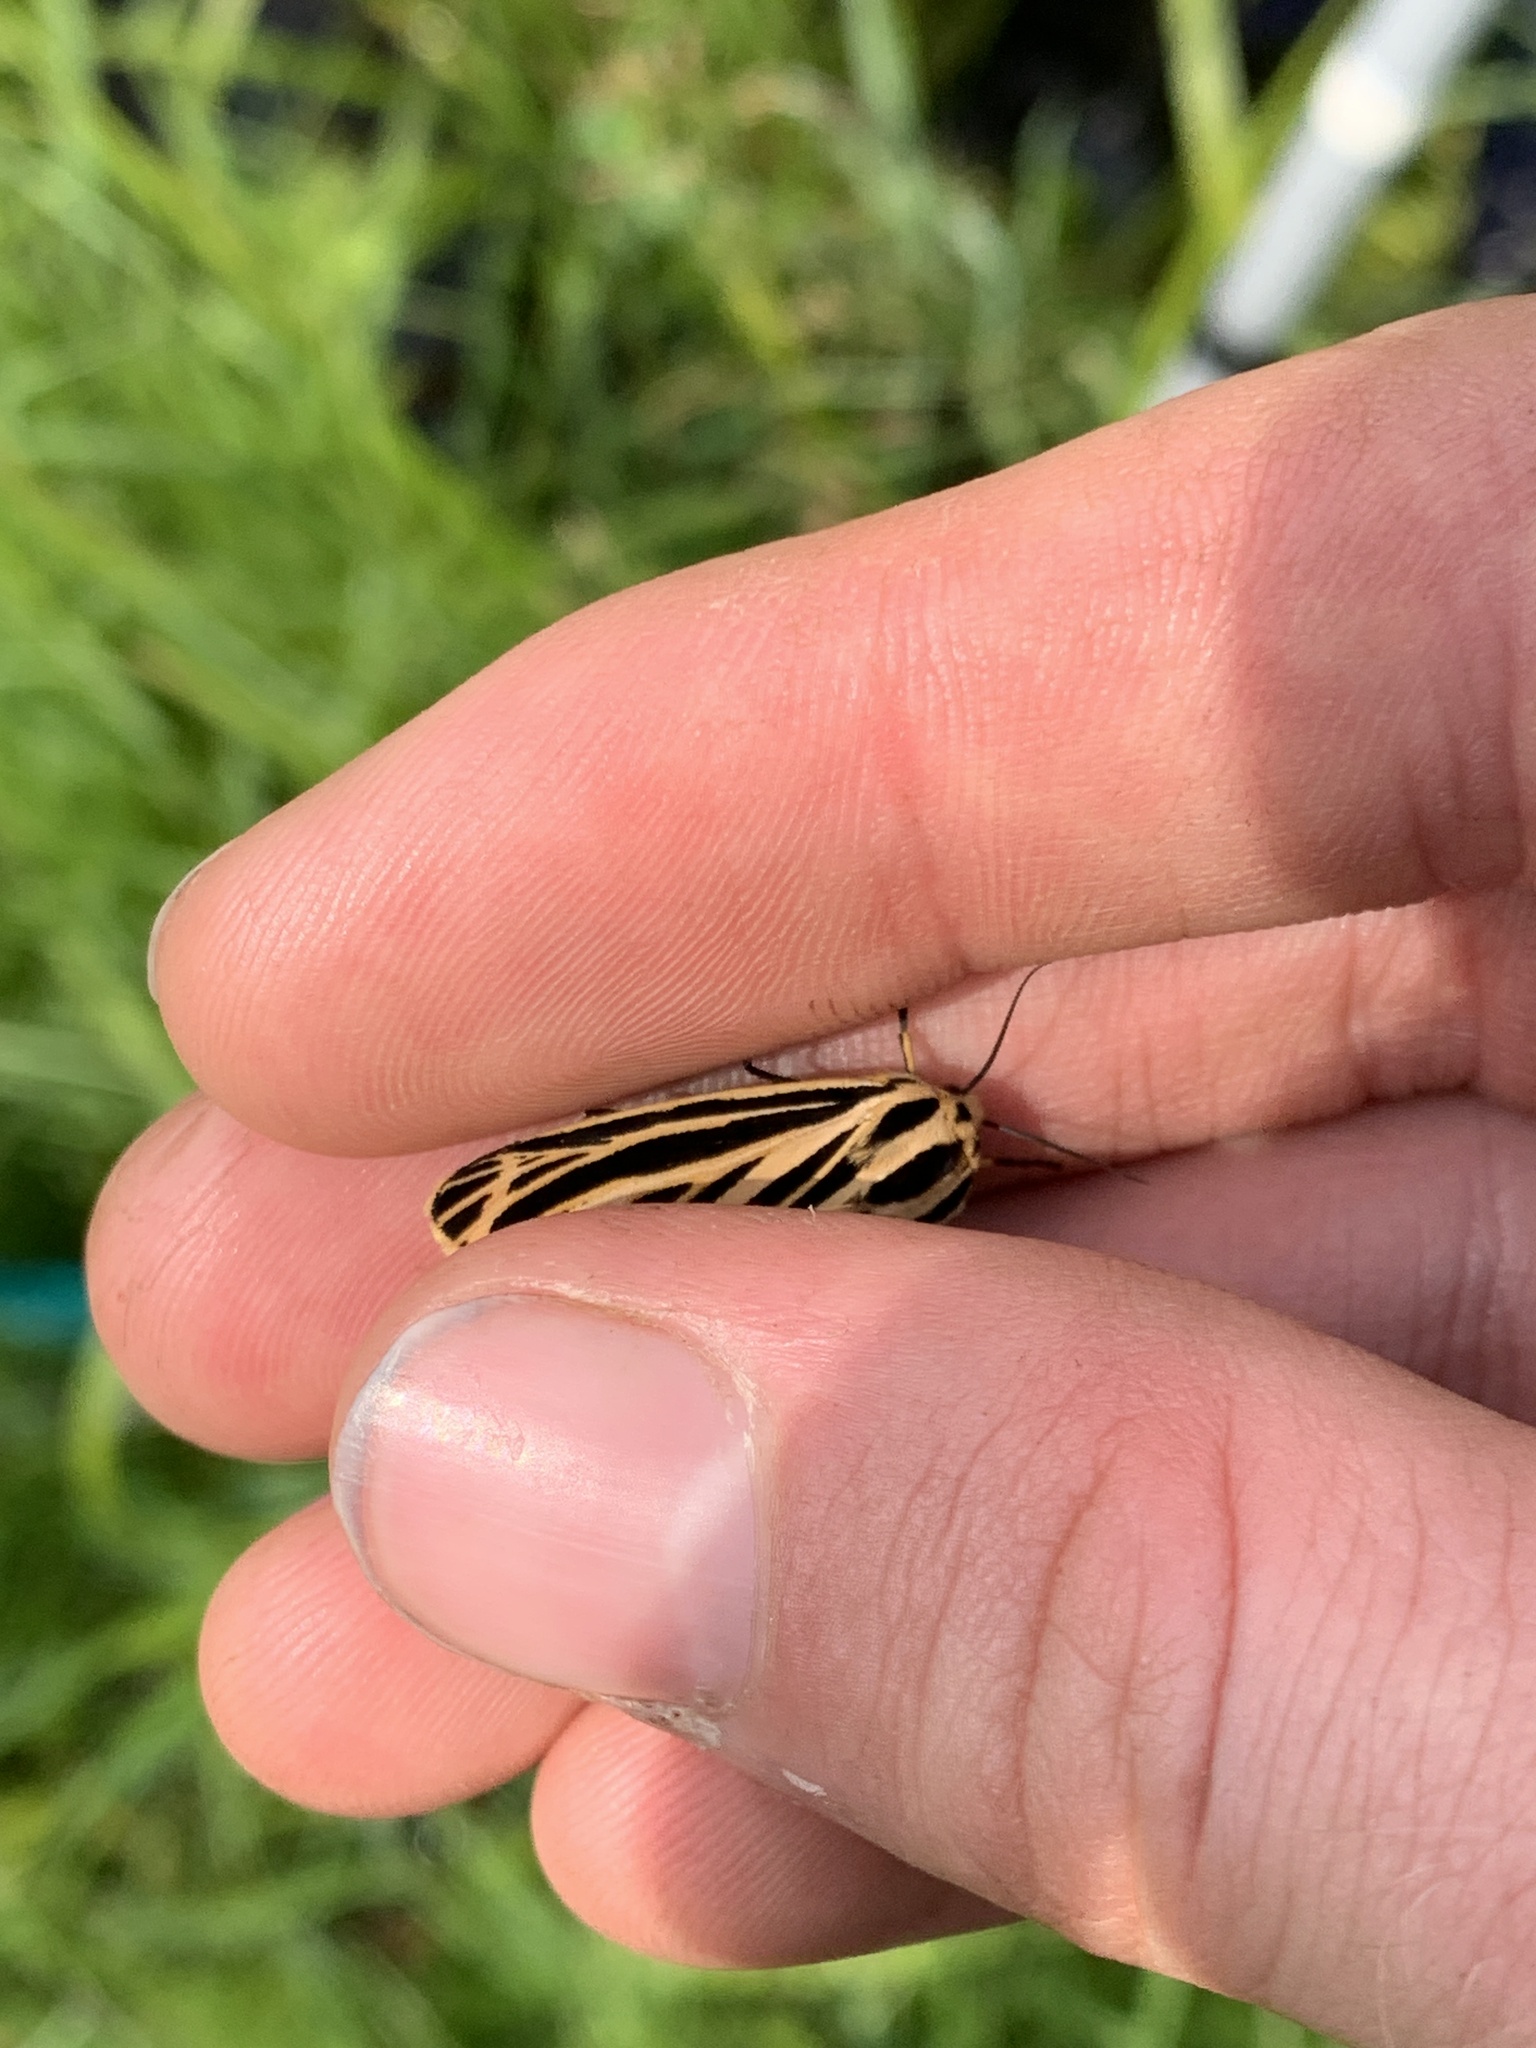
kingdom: Animalia
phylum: Arthropoda
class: Insecta
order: Lepidoptera
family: Erebidae
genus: Grammia
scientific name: Grammia virguncula
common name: Little tiger moth
